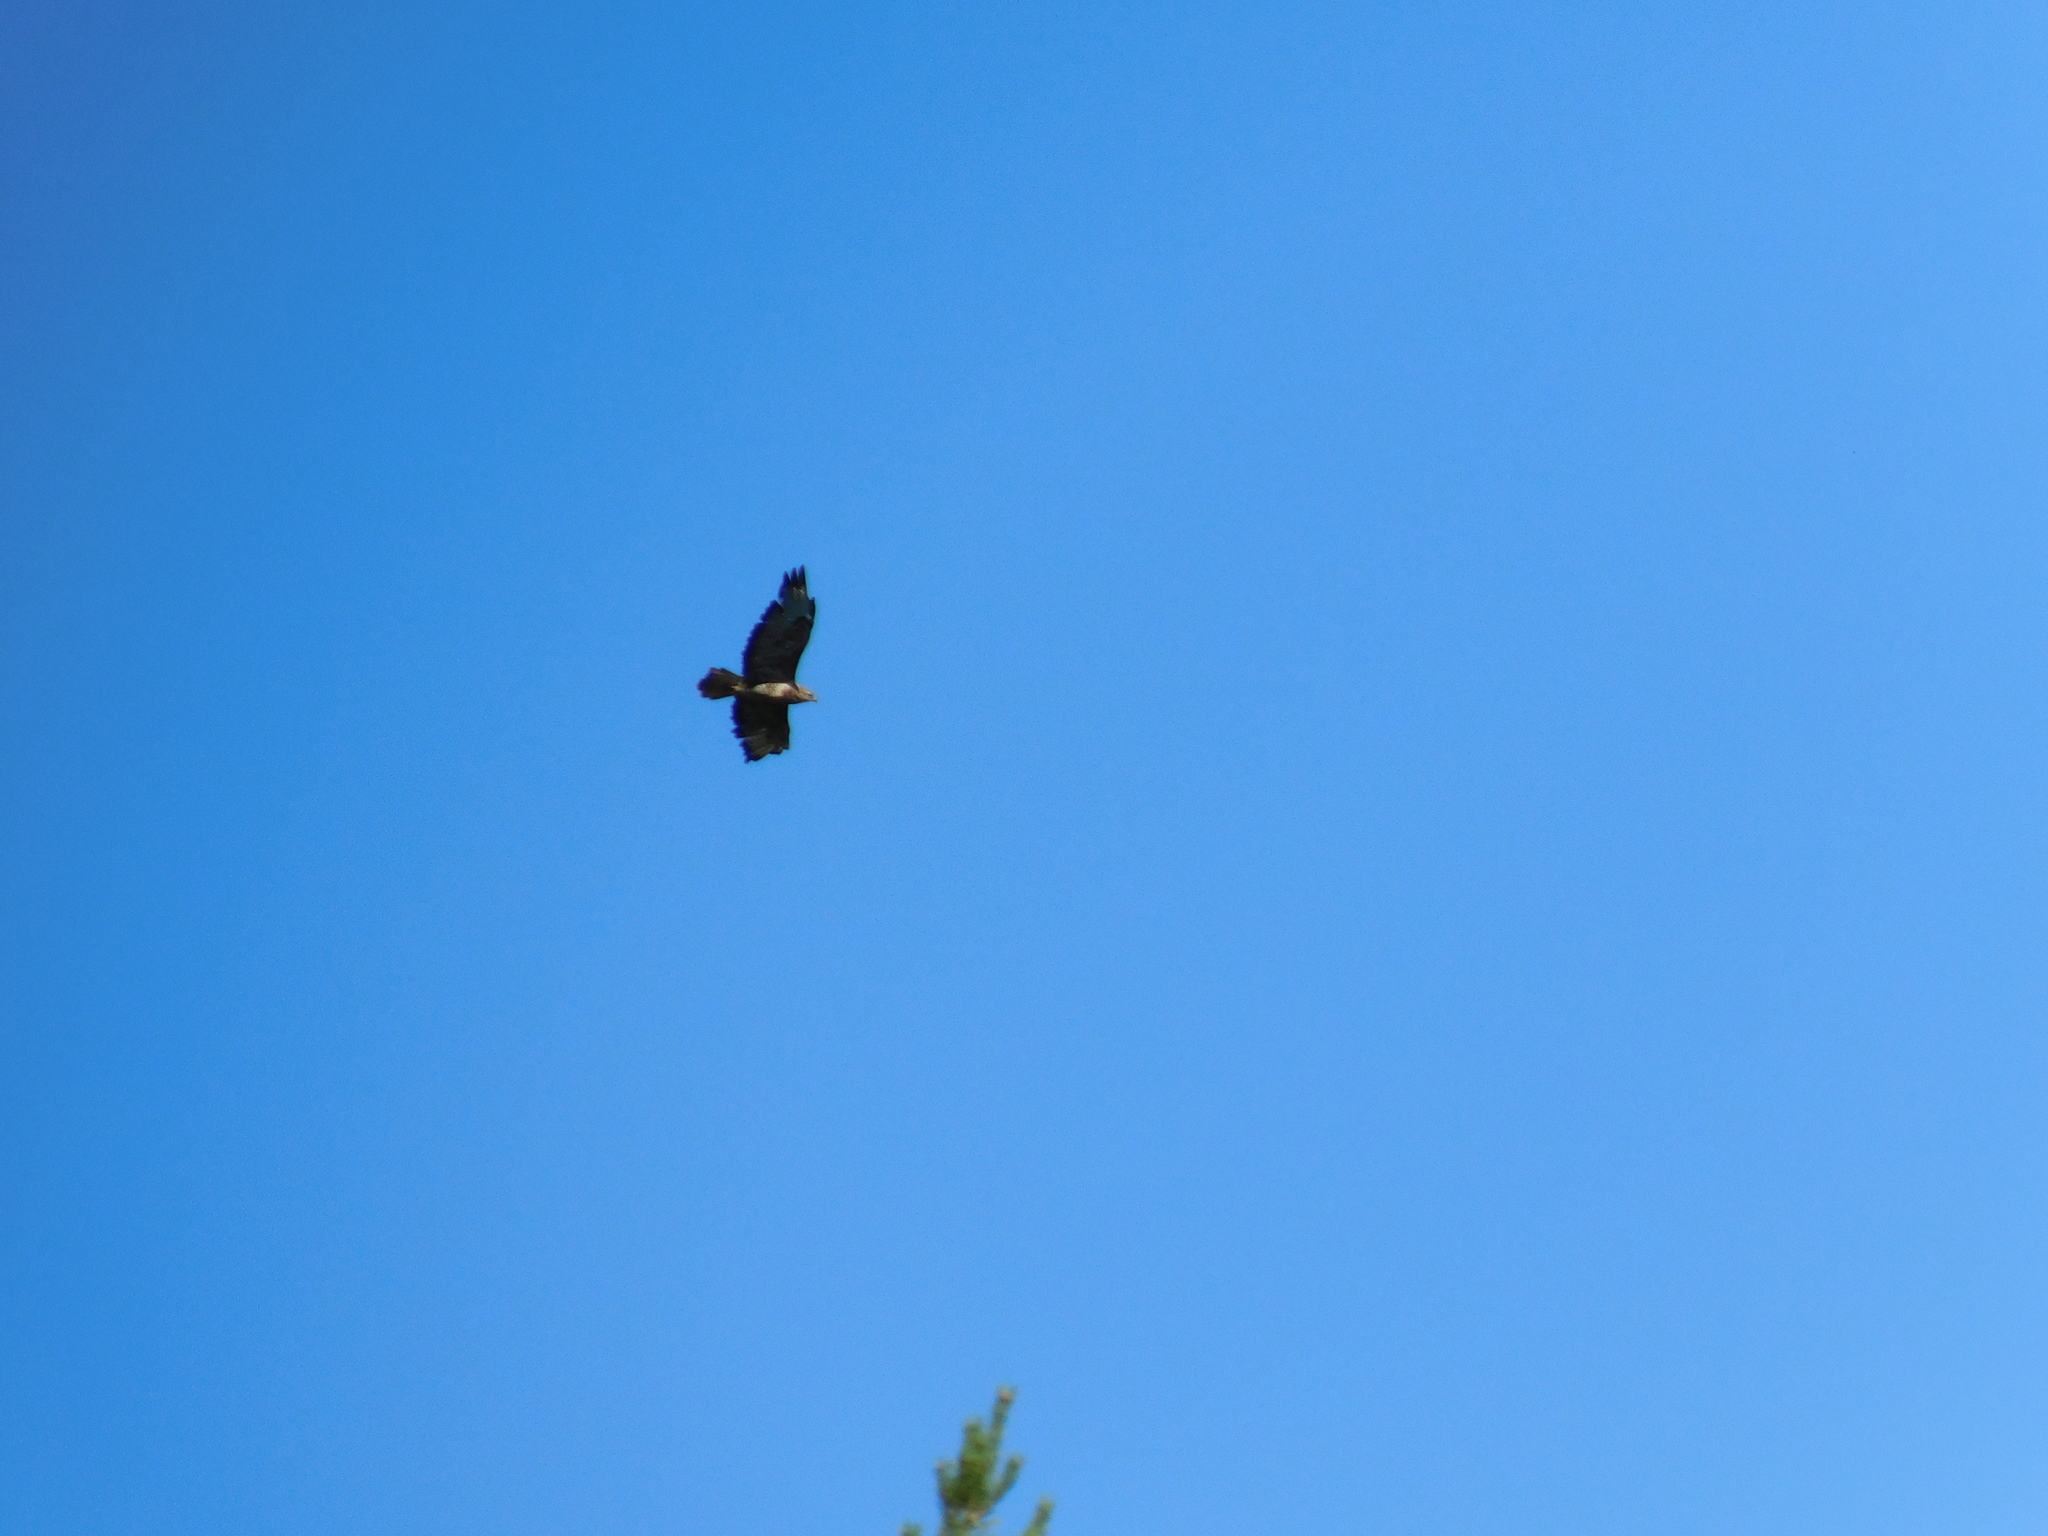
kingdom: Animalia
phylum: Chordata
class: Aves
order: Accipitriformes
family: Accipitridae
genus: Buteo
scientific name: Buteo buteo
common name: Common buzzard
